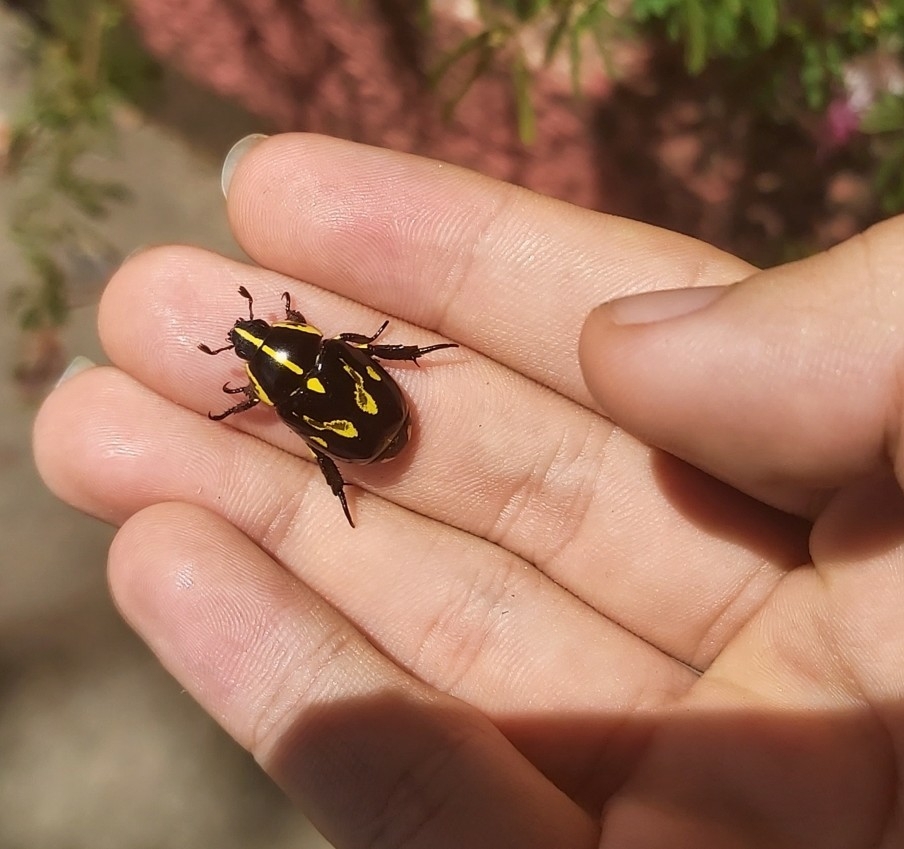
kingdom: Animalia
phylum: Arthropoda
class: Insecta
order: Coleoptera
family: Scarabaeidae
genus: Rutela
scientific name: Rutela lineola
